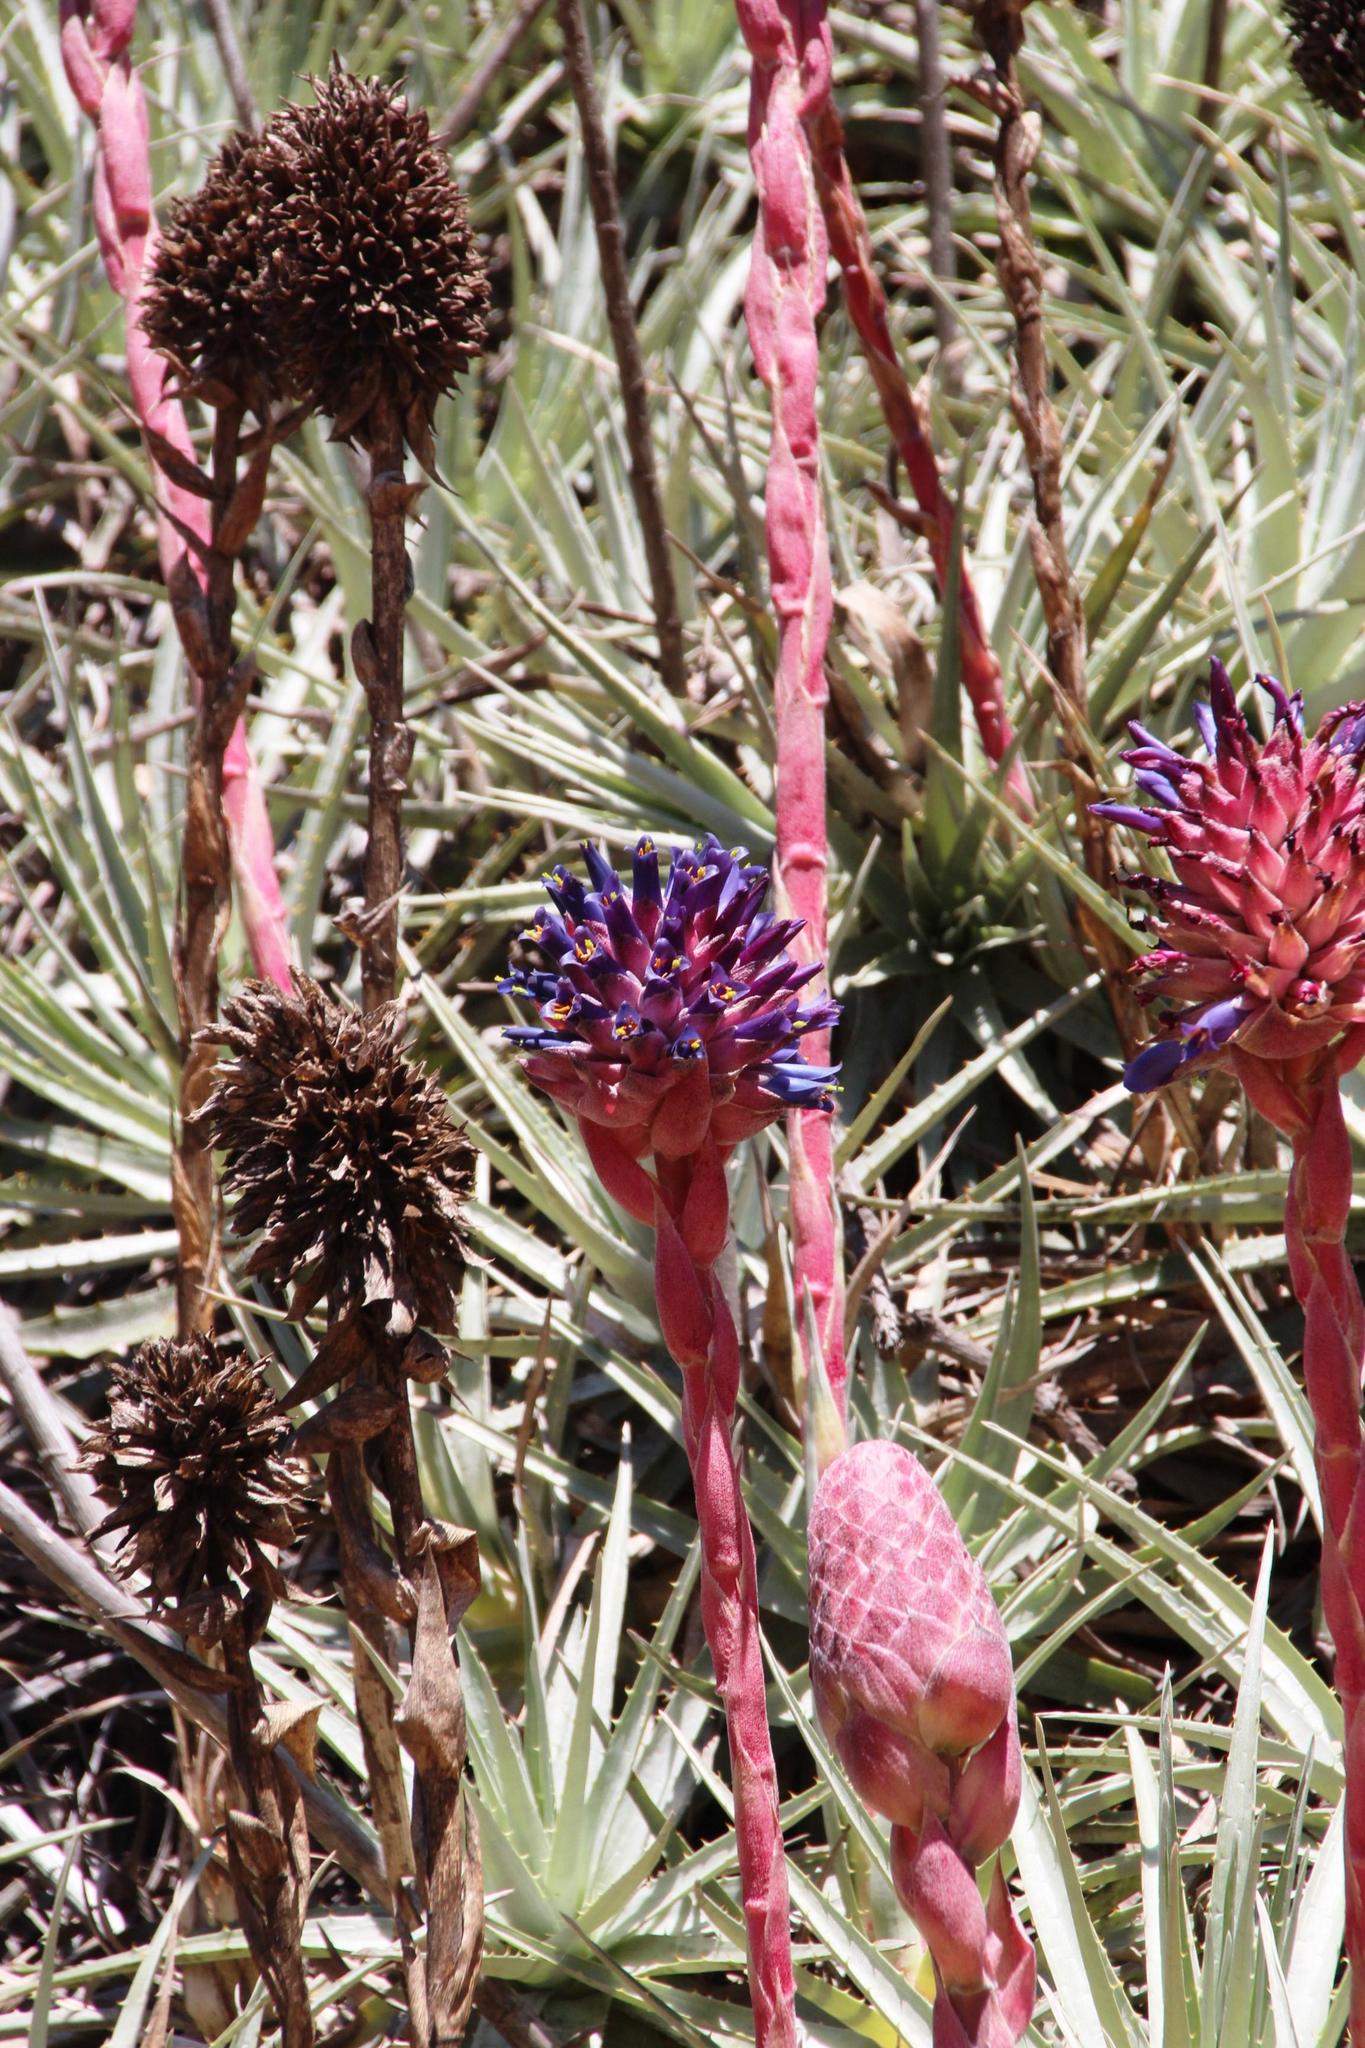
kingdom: Plantae
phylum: Tracheophyta
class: Liliopsida
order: Poales
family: Bromeliaceae
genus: Puya
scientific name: Puya venusta
